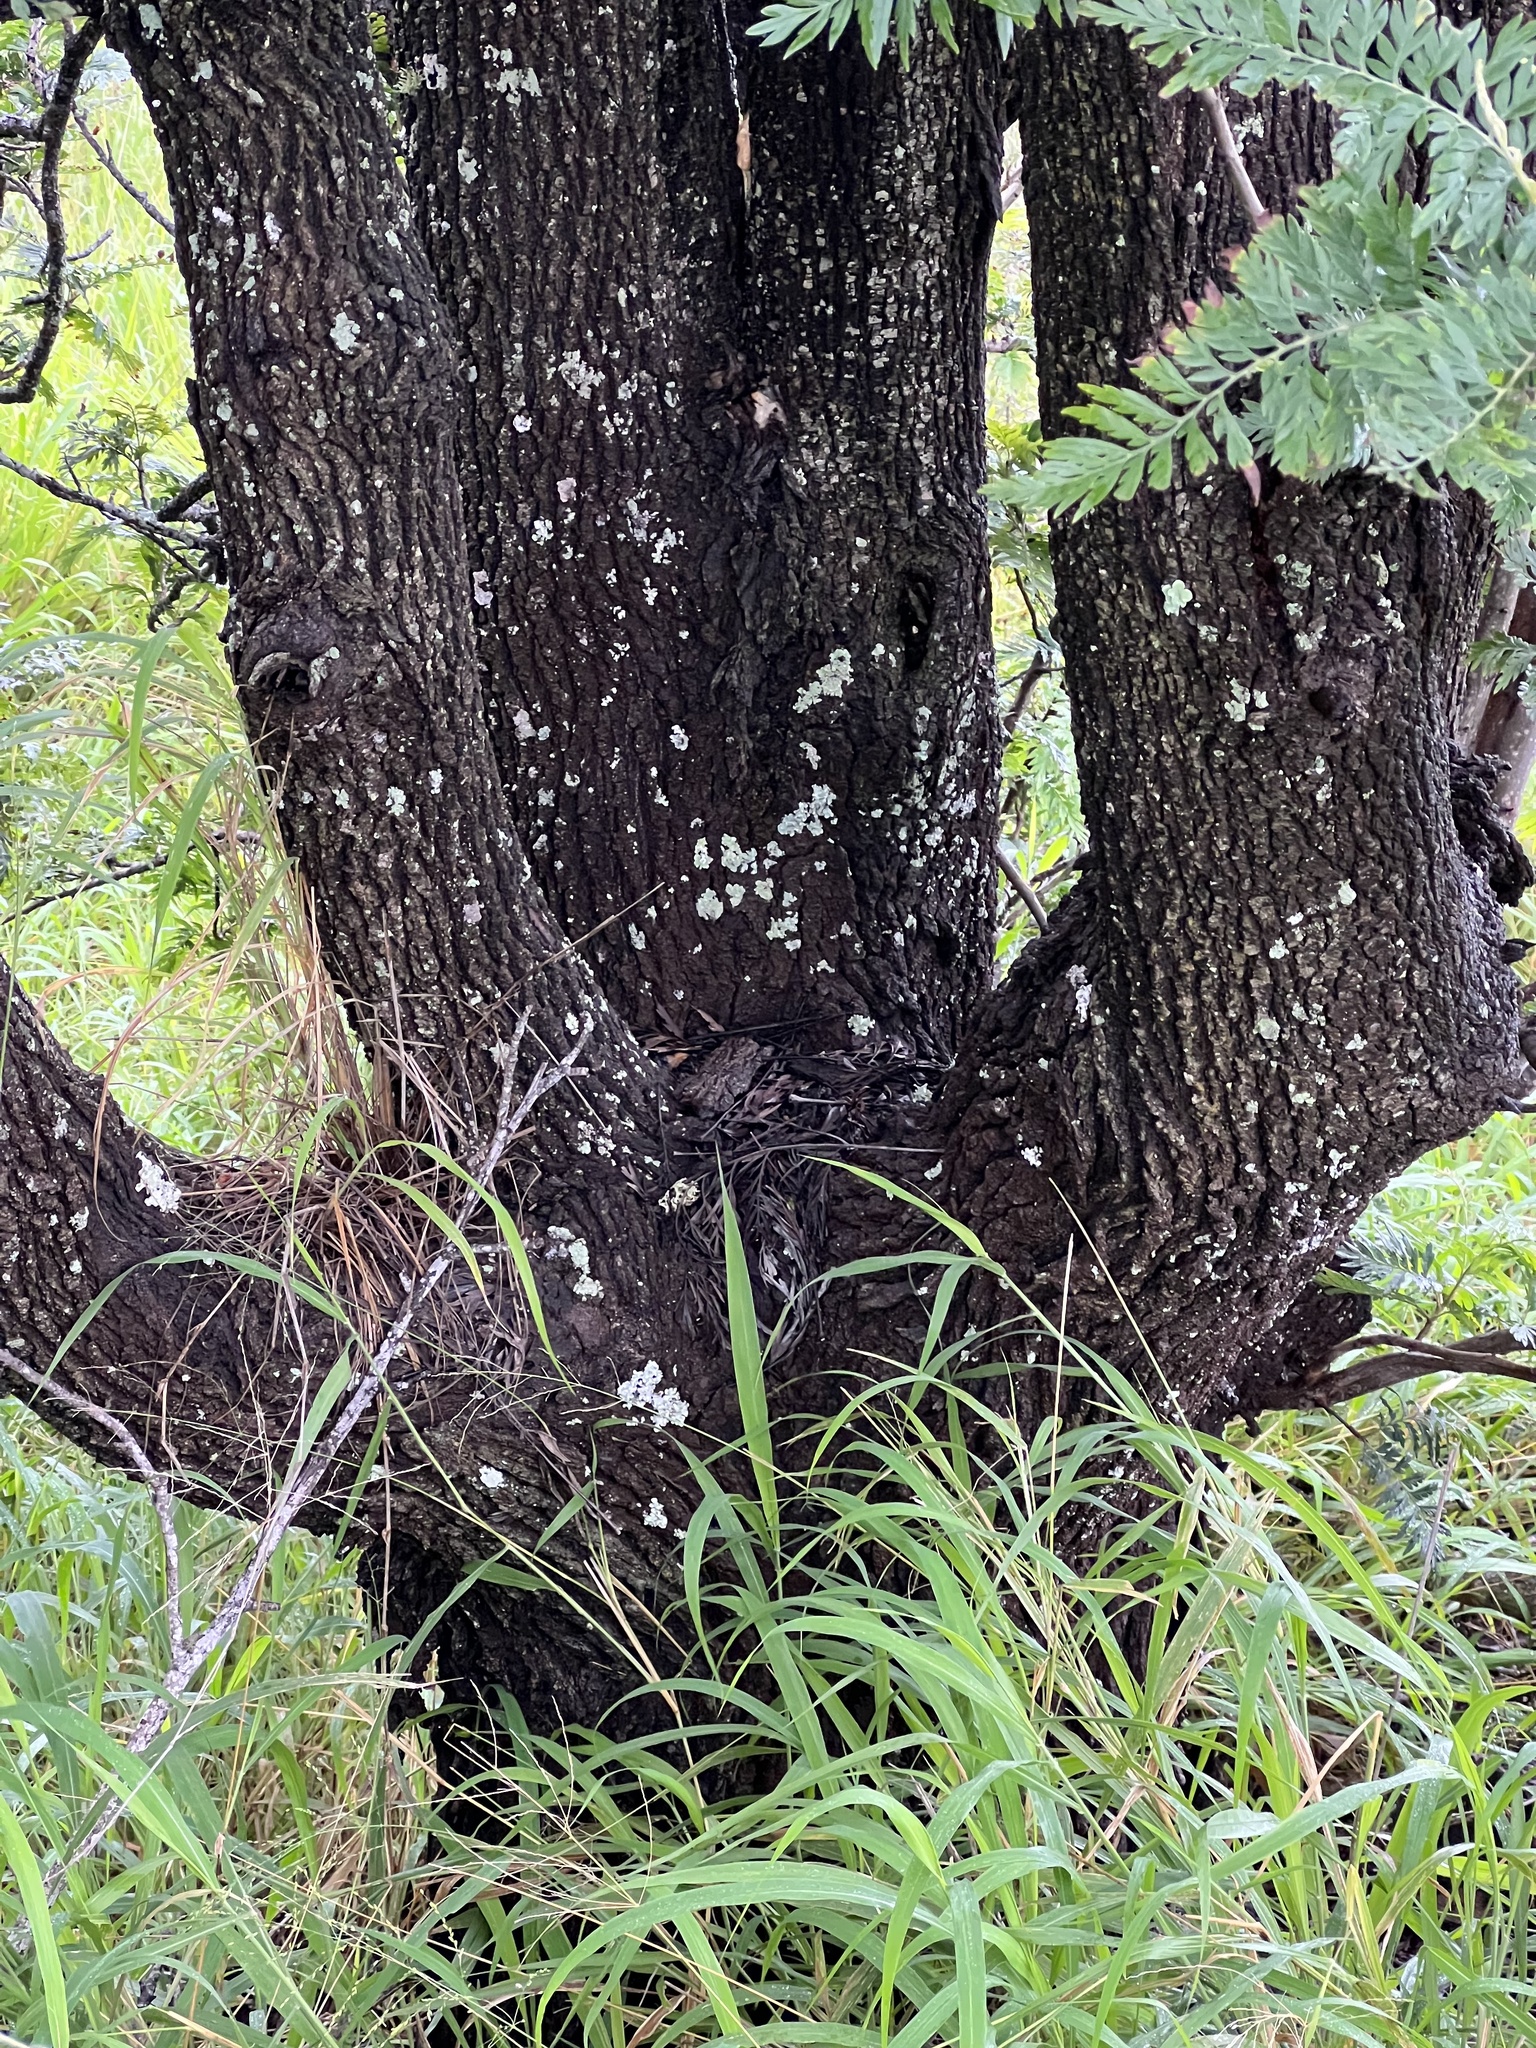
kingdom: Plantae
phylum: Tracheophyta
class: Magnoliopsida
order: Proteales
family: Proteaceae
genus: Grevillea
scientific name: Grevillea robusta
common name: Silkoak
